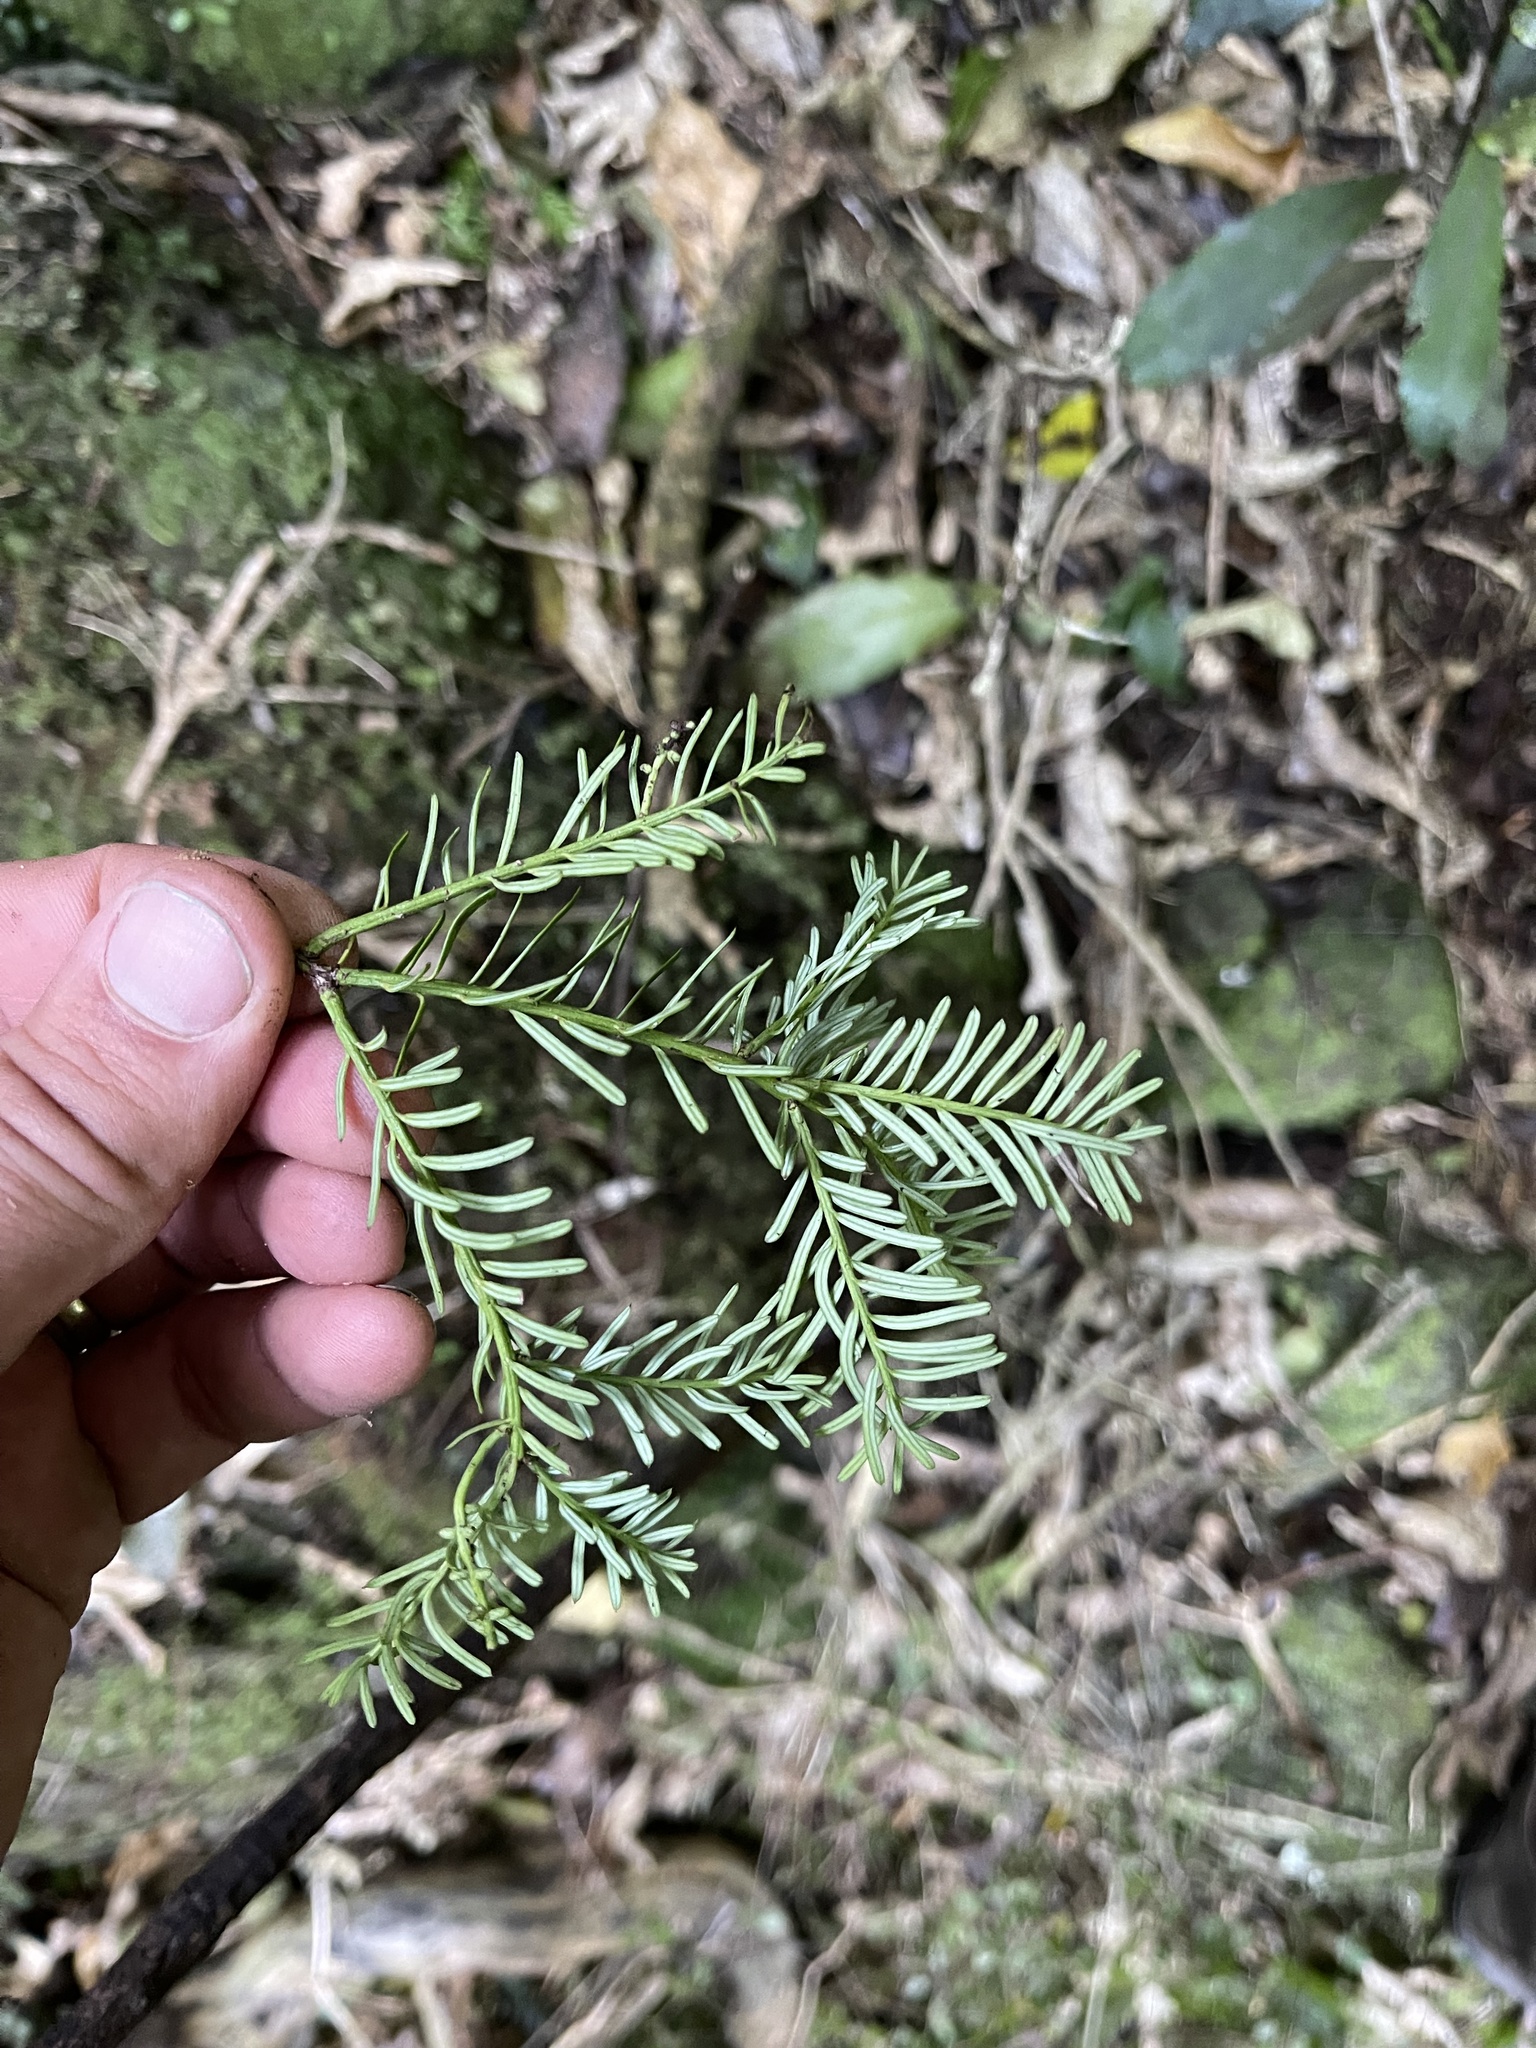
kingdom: Plantae
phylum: Tracheophyta
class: Pinopsida
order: Pinales
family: Podocarpaceae
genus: Prumnopitys
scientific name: Prumnopitys taxifolia
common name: Matai
